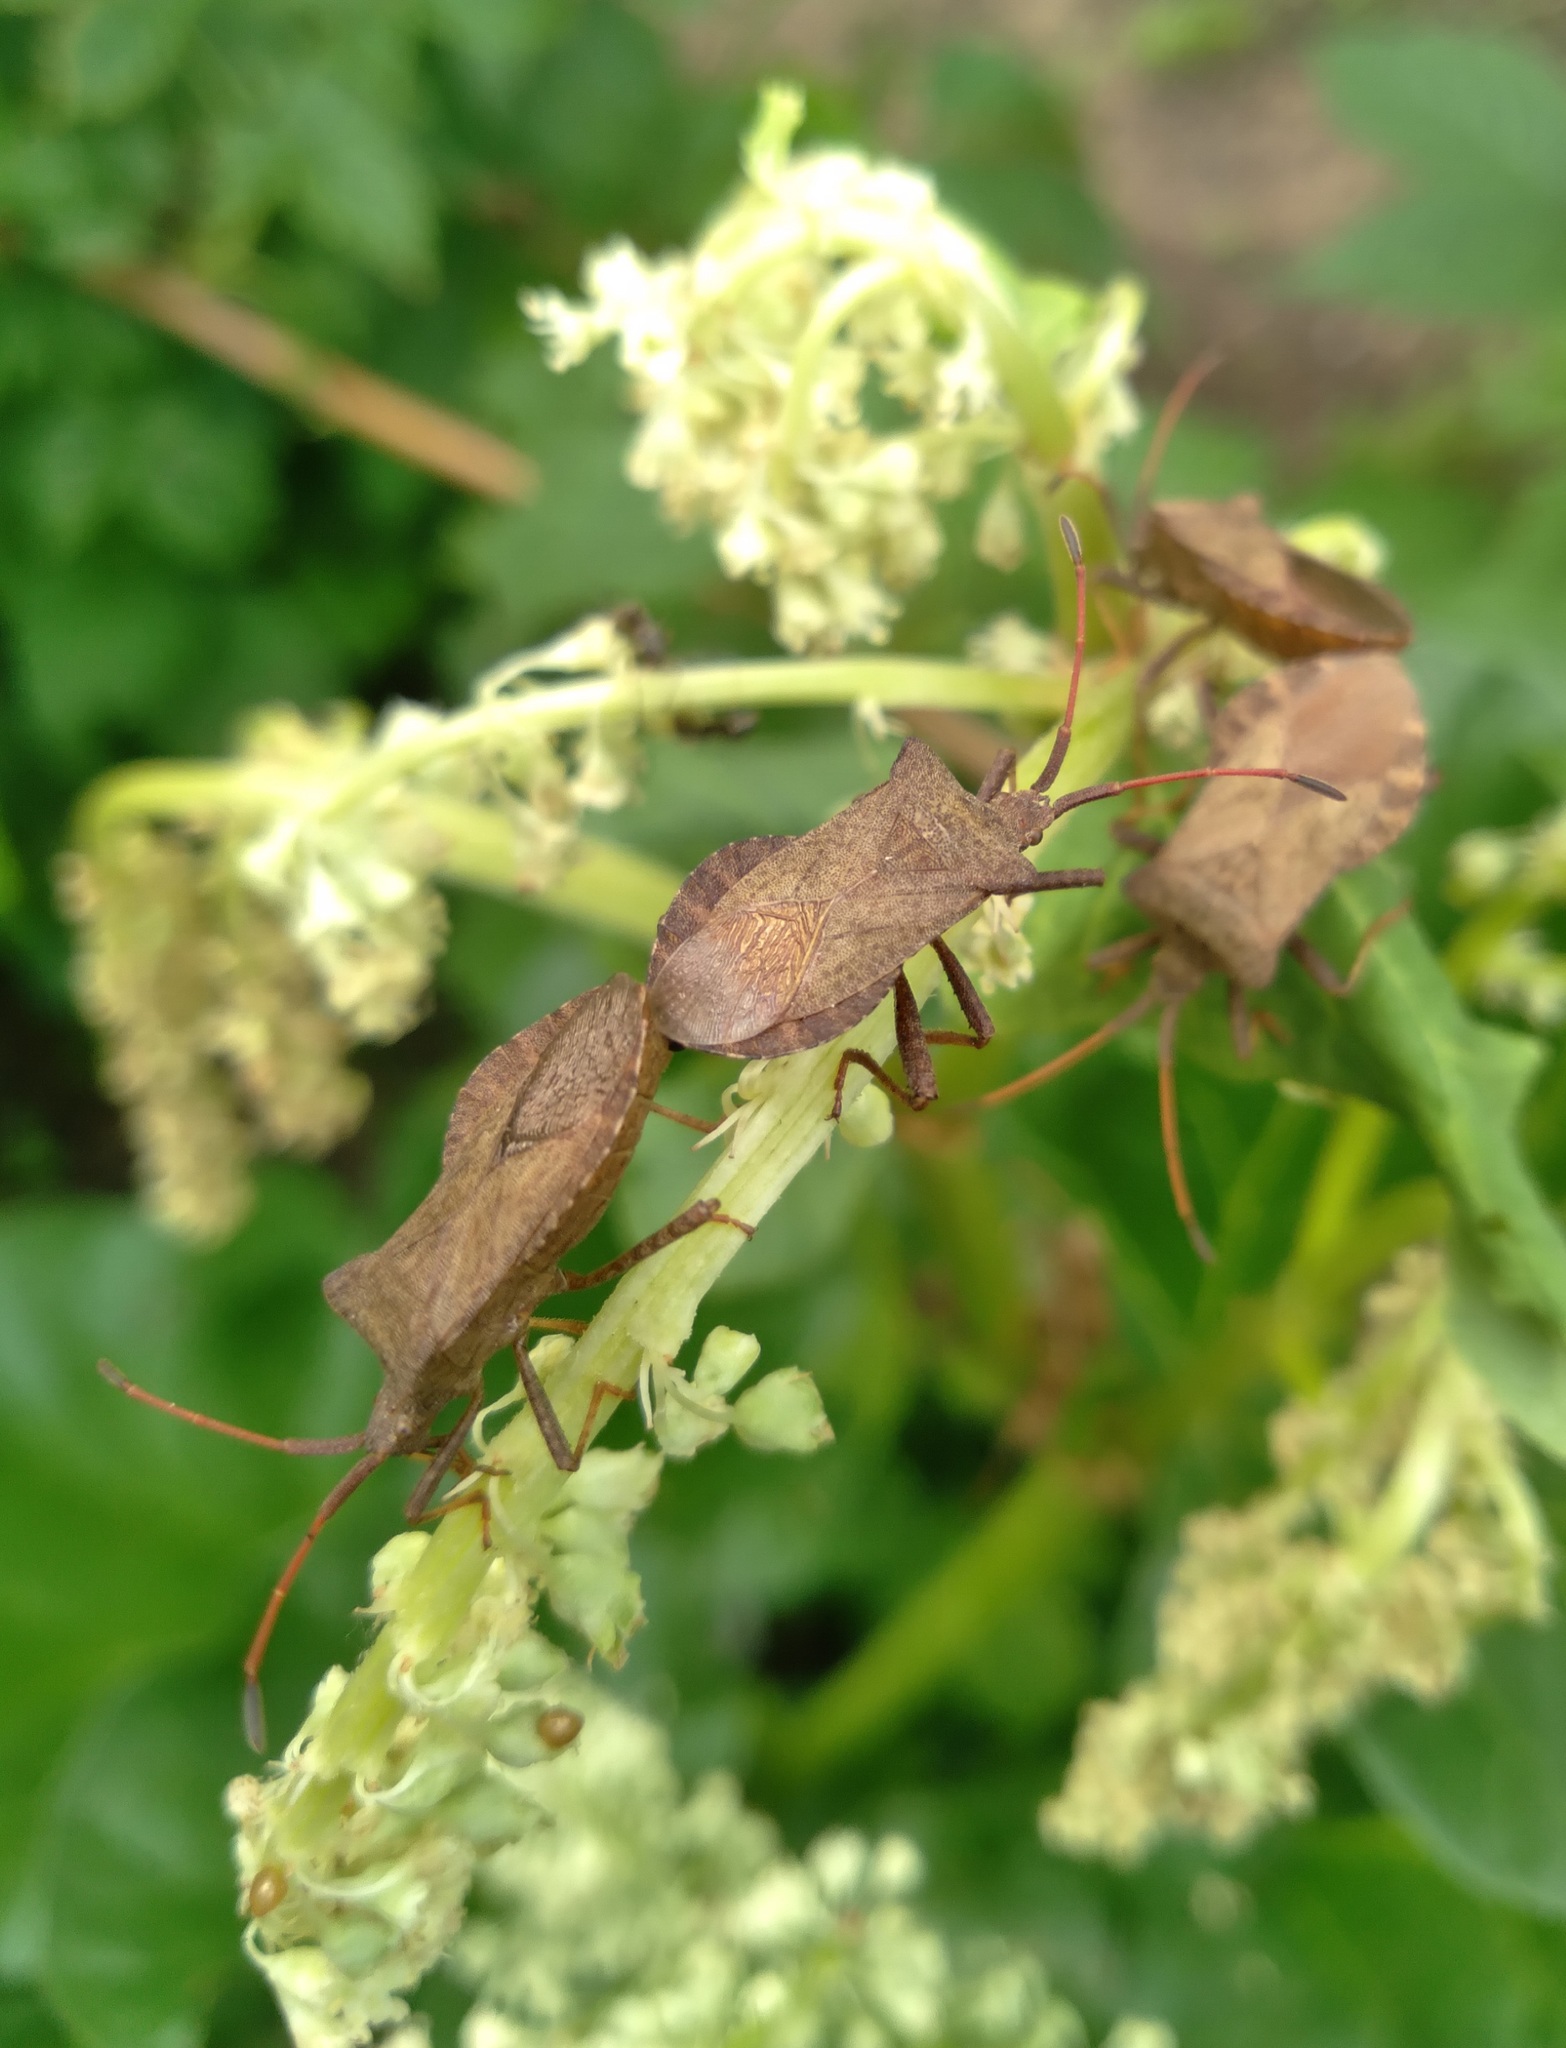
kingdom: Animalia
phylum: Arthropoda
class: Insecta
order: Hemiptera
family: Coreidae
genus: Coreus
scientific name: Coreus marginatus
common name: Dock bug
